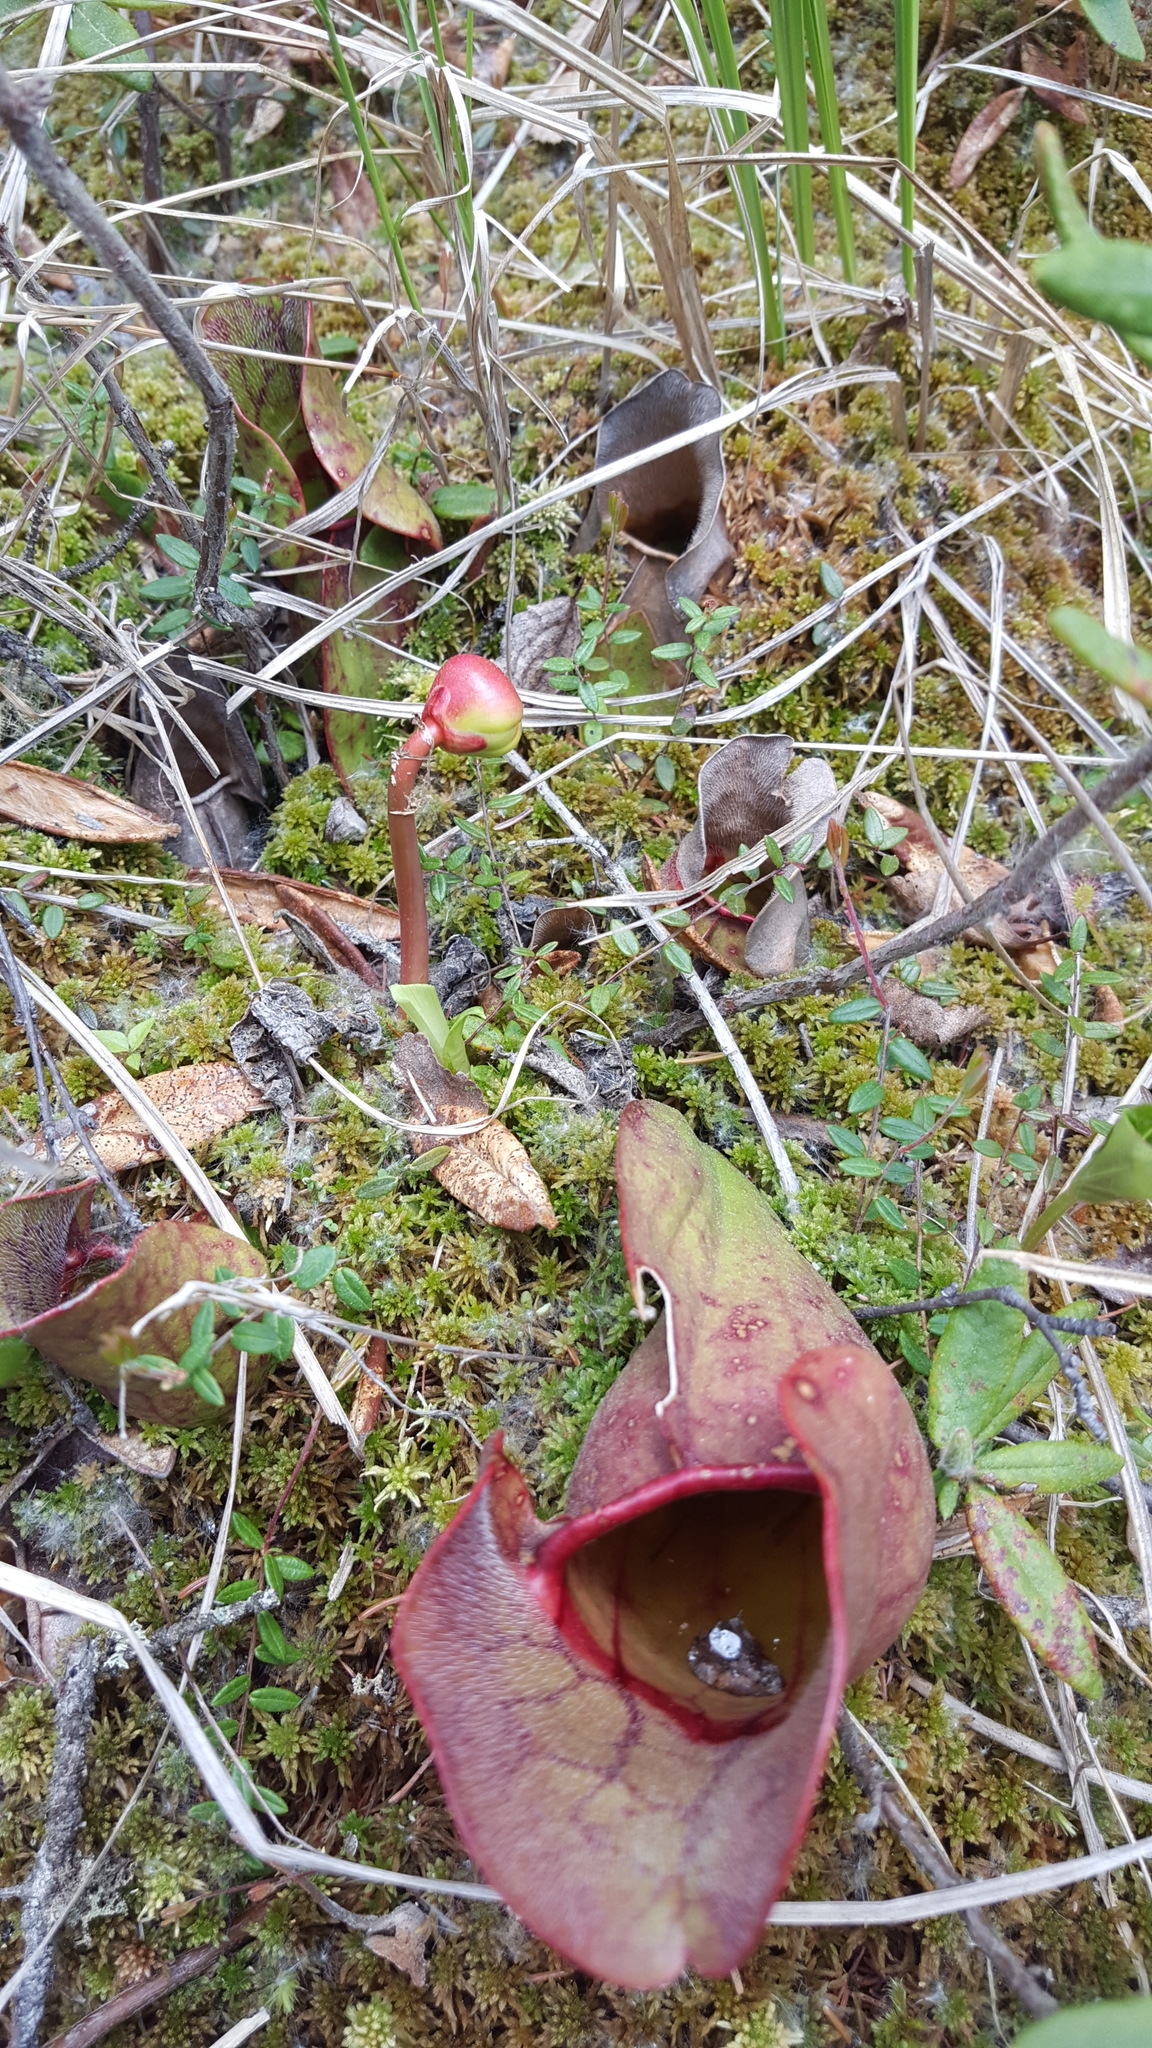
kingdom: Plantae
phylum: Tracheophyta
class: Magnoliopsida
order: Ericales
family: Sarraceniaceae
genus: Sarracenia
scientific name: Sarracenia purpurea
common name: Pitcherplant
